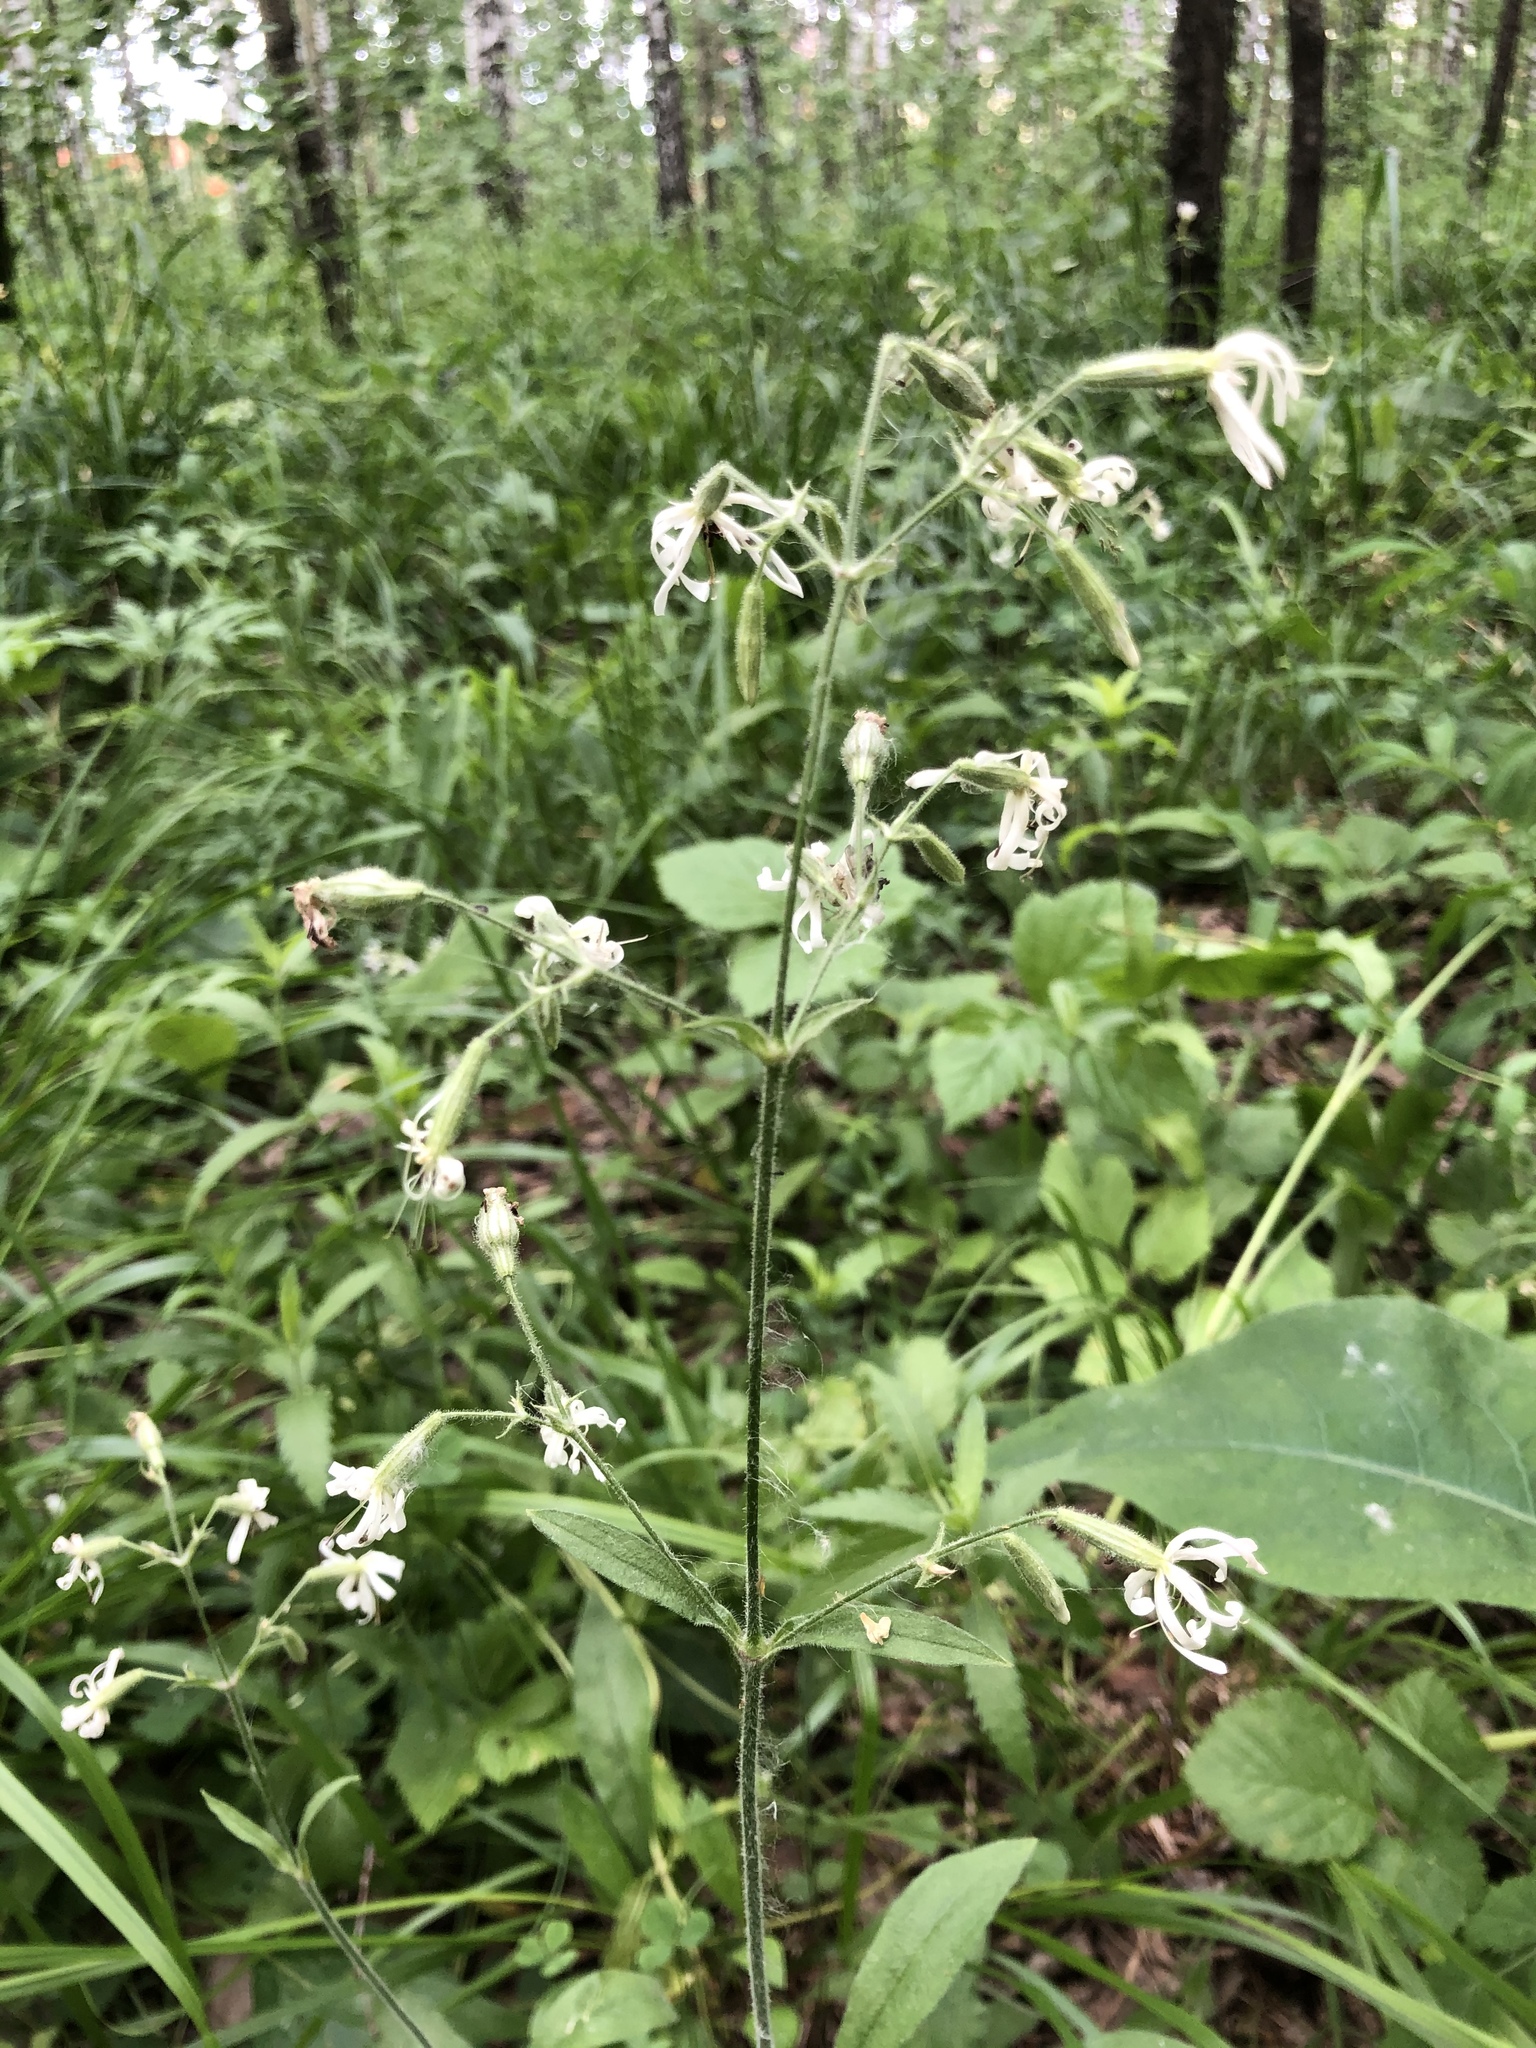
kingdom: Plantae
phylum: Tracheophyta
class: Magnoliopsida
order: Caryophyllales
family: Caryophyllaceae
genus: Silene
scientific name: Silene nutans
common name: Nottingham catchfly
